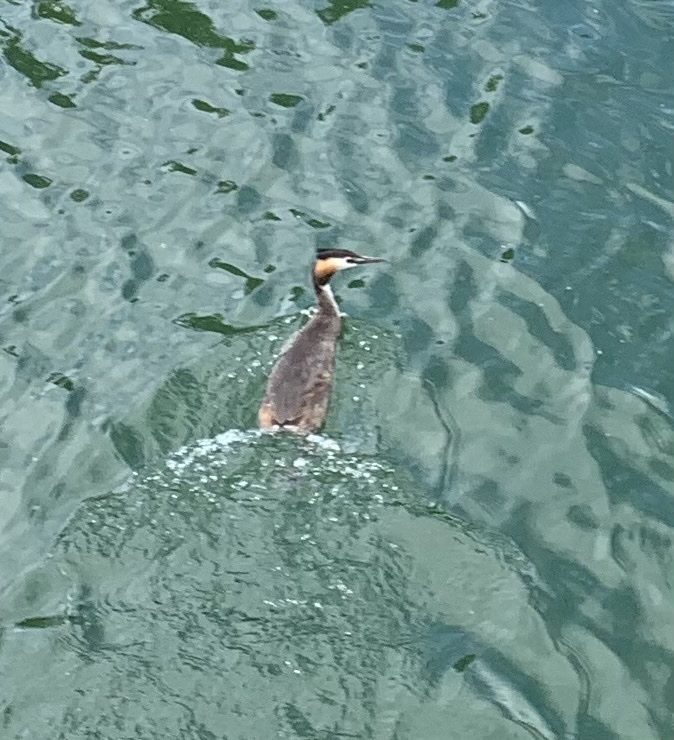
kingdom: Animalia
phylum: Chordata
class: Aves
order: Podicipediformes
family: Podicipedidae
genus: Podiceps
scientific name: Podiceps cristatus
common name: Great crested grebe
